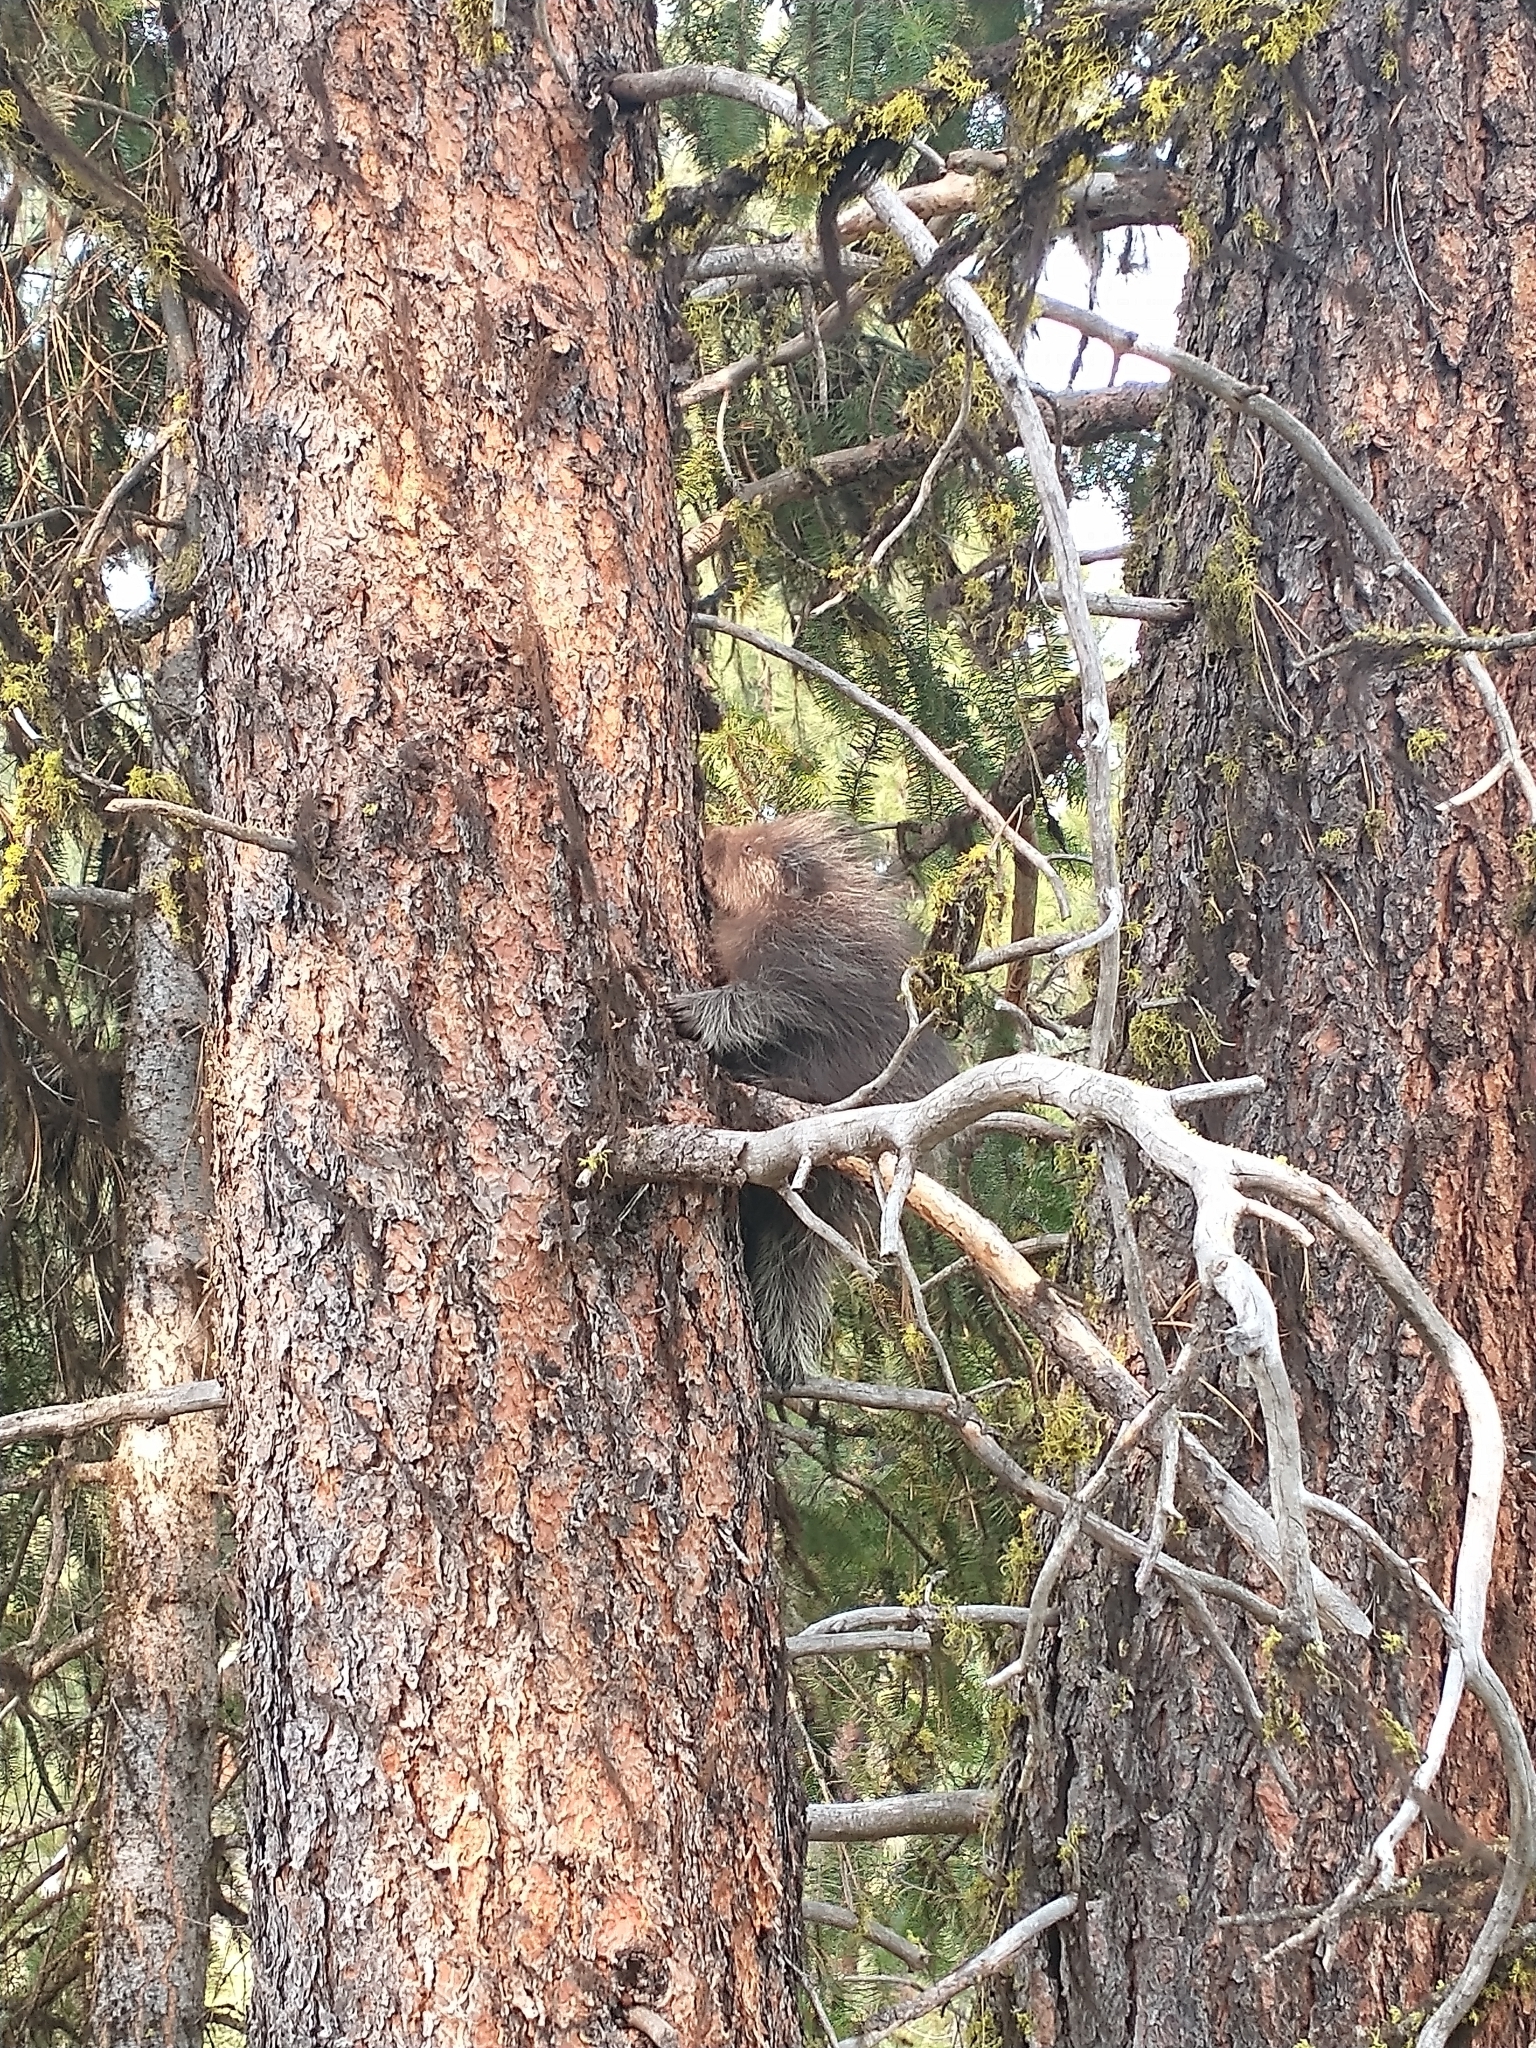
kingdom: Animalia
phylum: Chordata
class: Mammalia
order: Rodentia
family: Erethizontidae
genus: Erethizon
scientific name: Erethizon dorsatus
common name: North american porcupine
